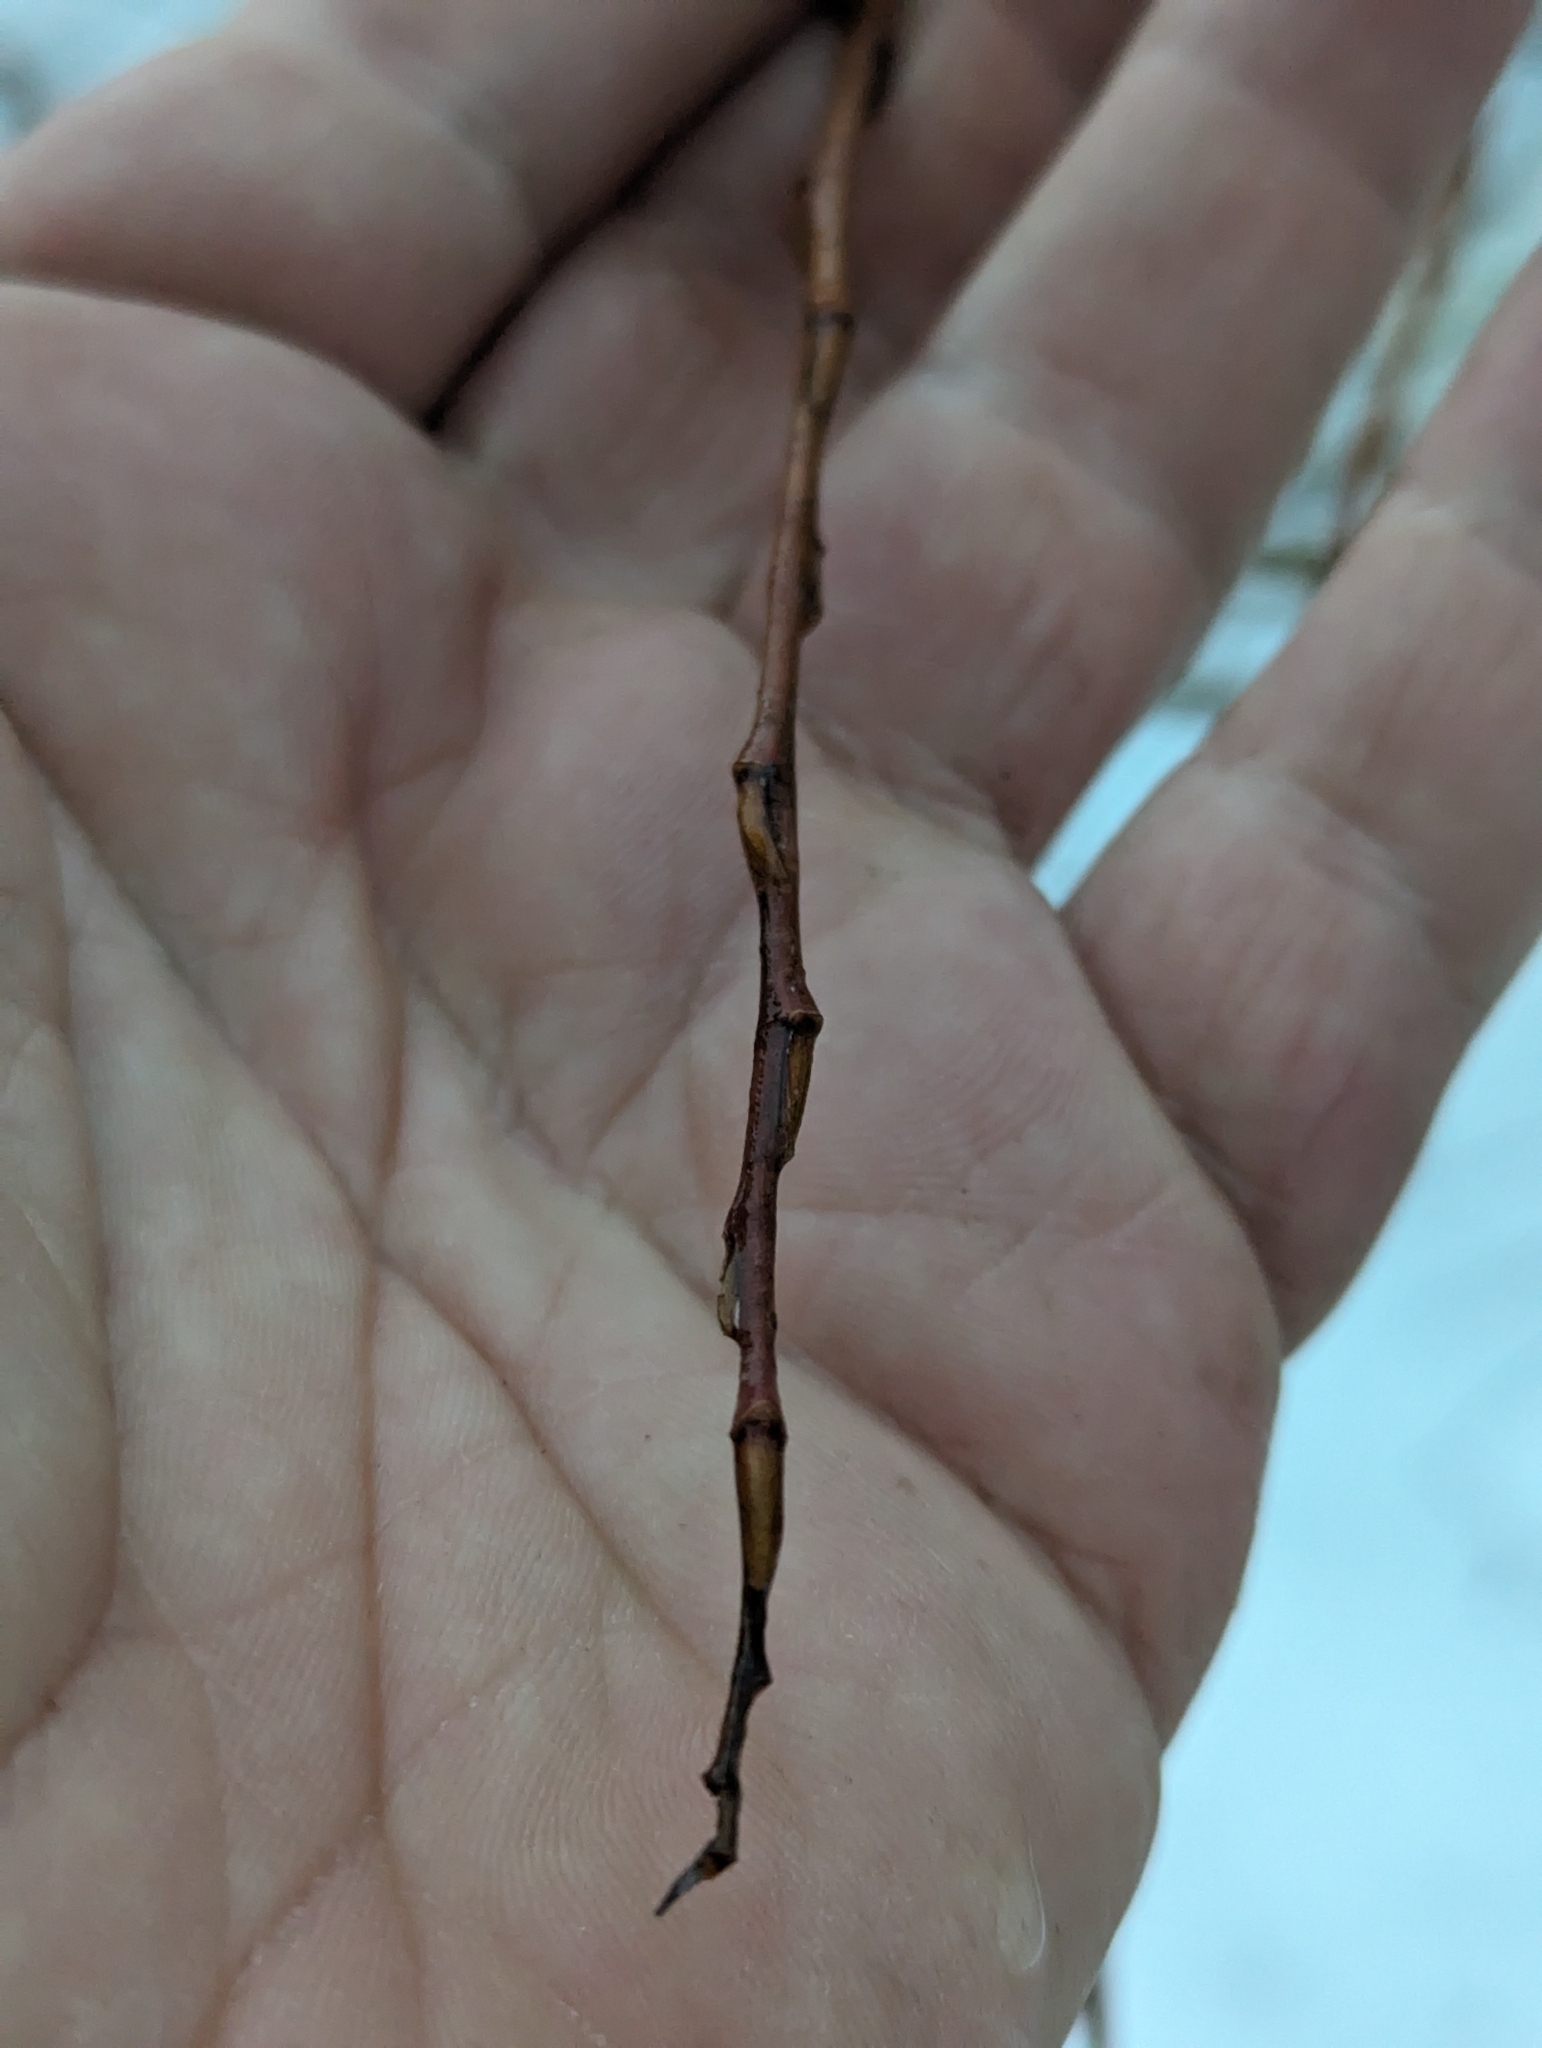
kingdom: Plantae
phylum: Tracheophyta
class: Magnoliopsida
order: Malpighiales
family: Salicaceae
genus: Salix
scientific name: Salix alba
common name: White willow
